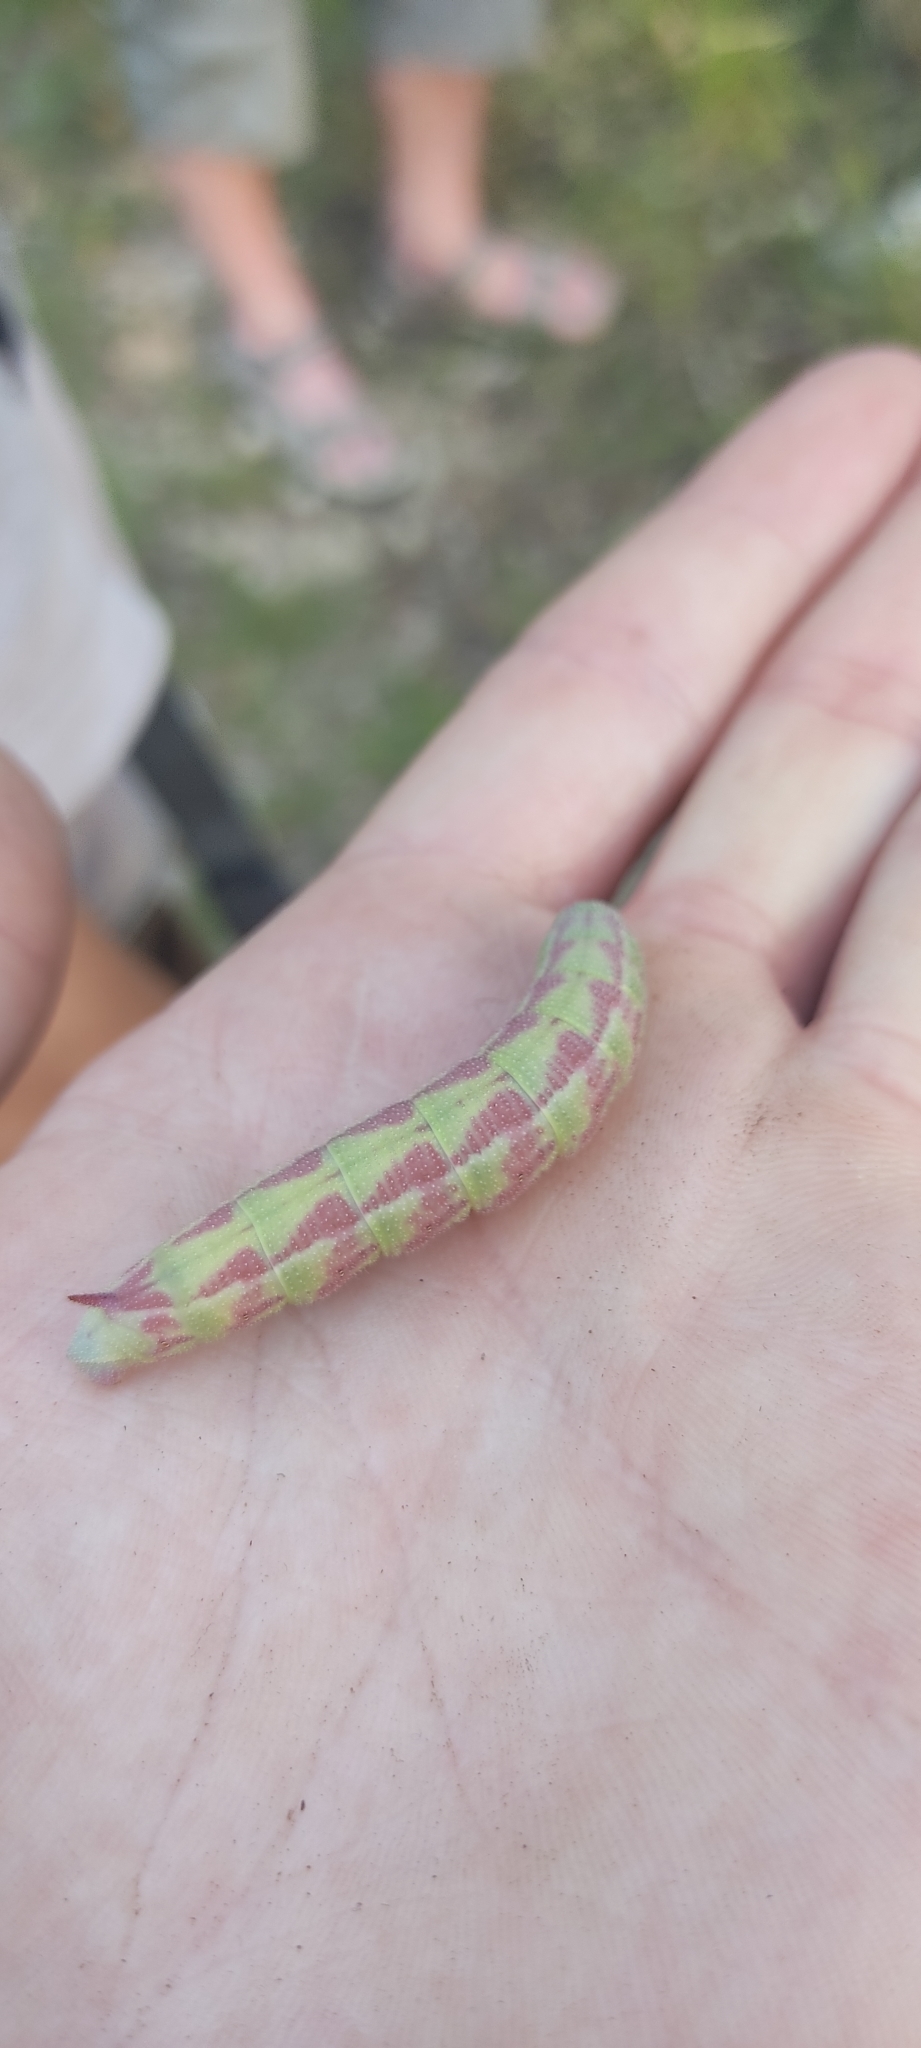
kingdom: Animalia
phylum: Arthropoda
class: Insecta
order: Lepidoptera
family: Sphingidae
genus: Hemaris
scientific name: Hemaris tityus
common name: Narrow-bordered bee hawk-moth
